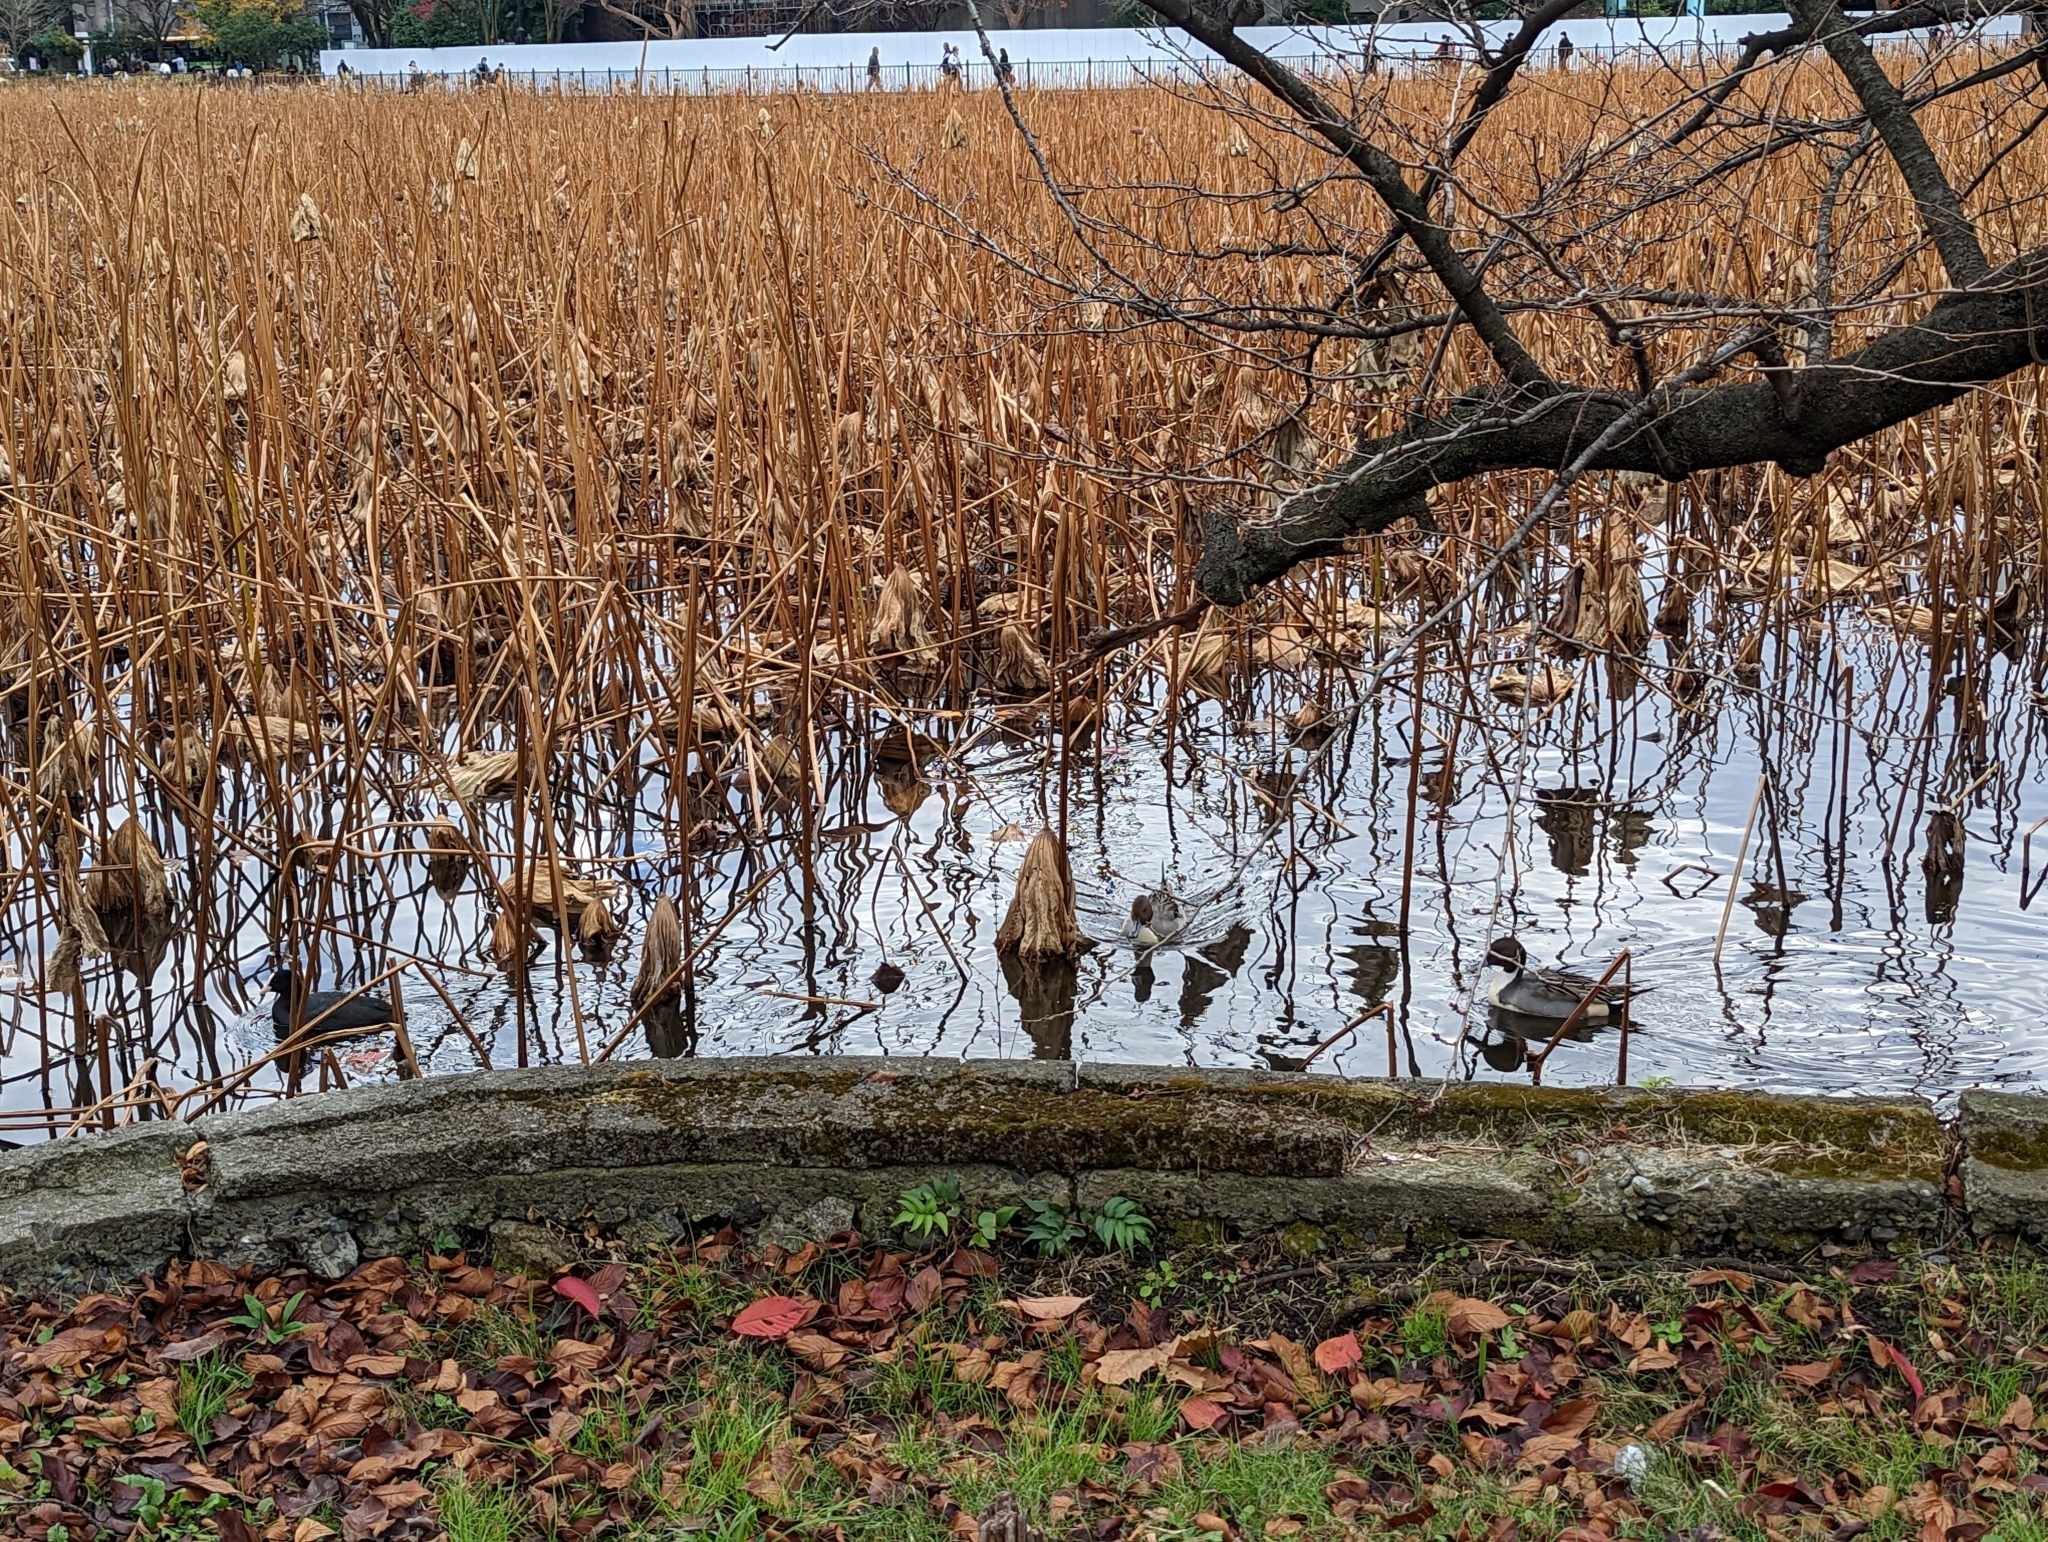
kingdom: Animalia
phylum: Chordata
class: Aves
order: Anseriformes
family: Anatidae
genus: Anas
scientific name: Anas acuta
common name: Northern pintail
